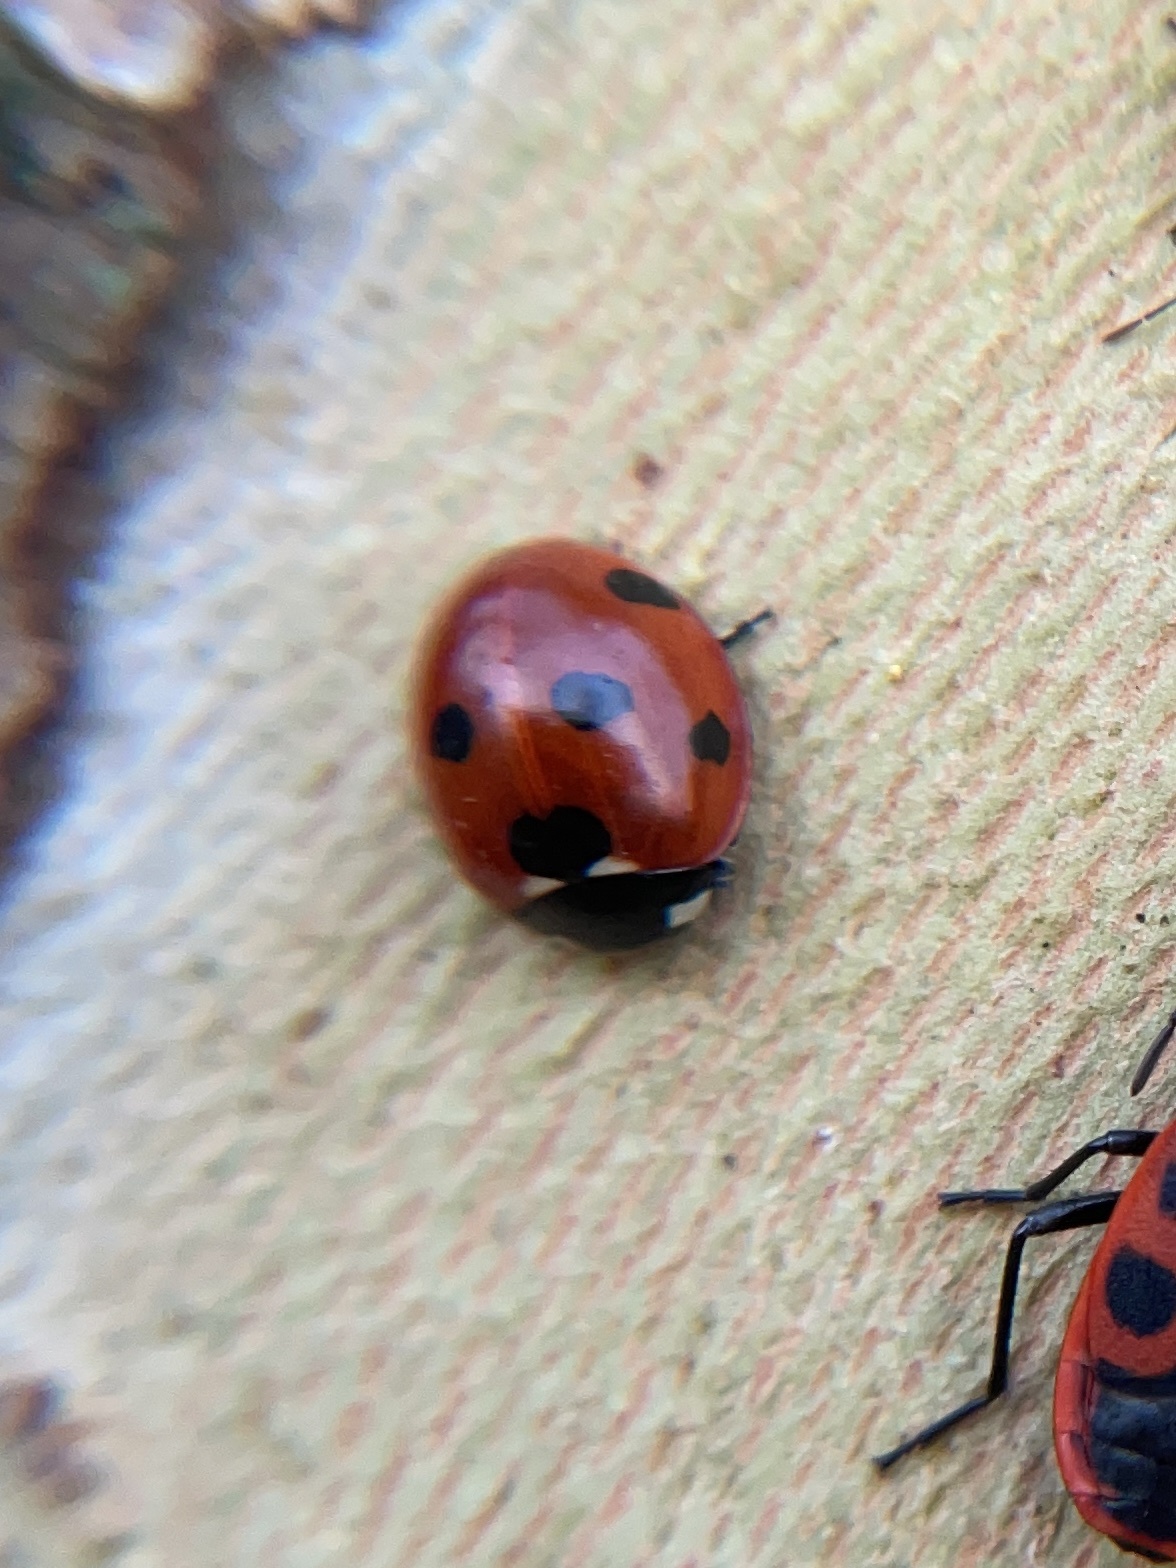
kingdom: Animalia
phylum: Arthropoda
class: Insecta
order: Coleoptera
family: Coccinellidae
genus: Coccinella
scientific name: Coccinella septempunctata
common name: Sevenspotted lady beetle
